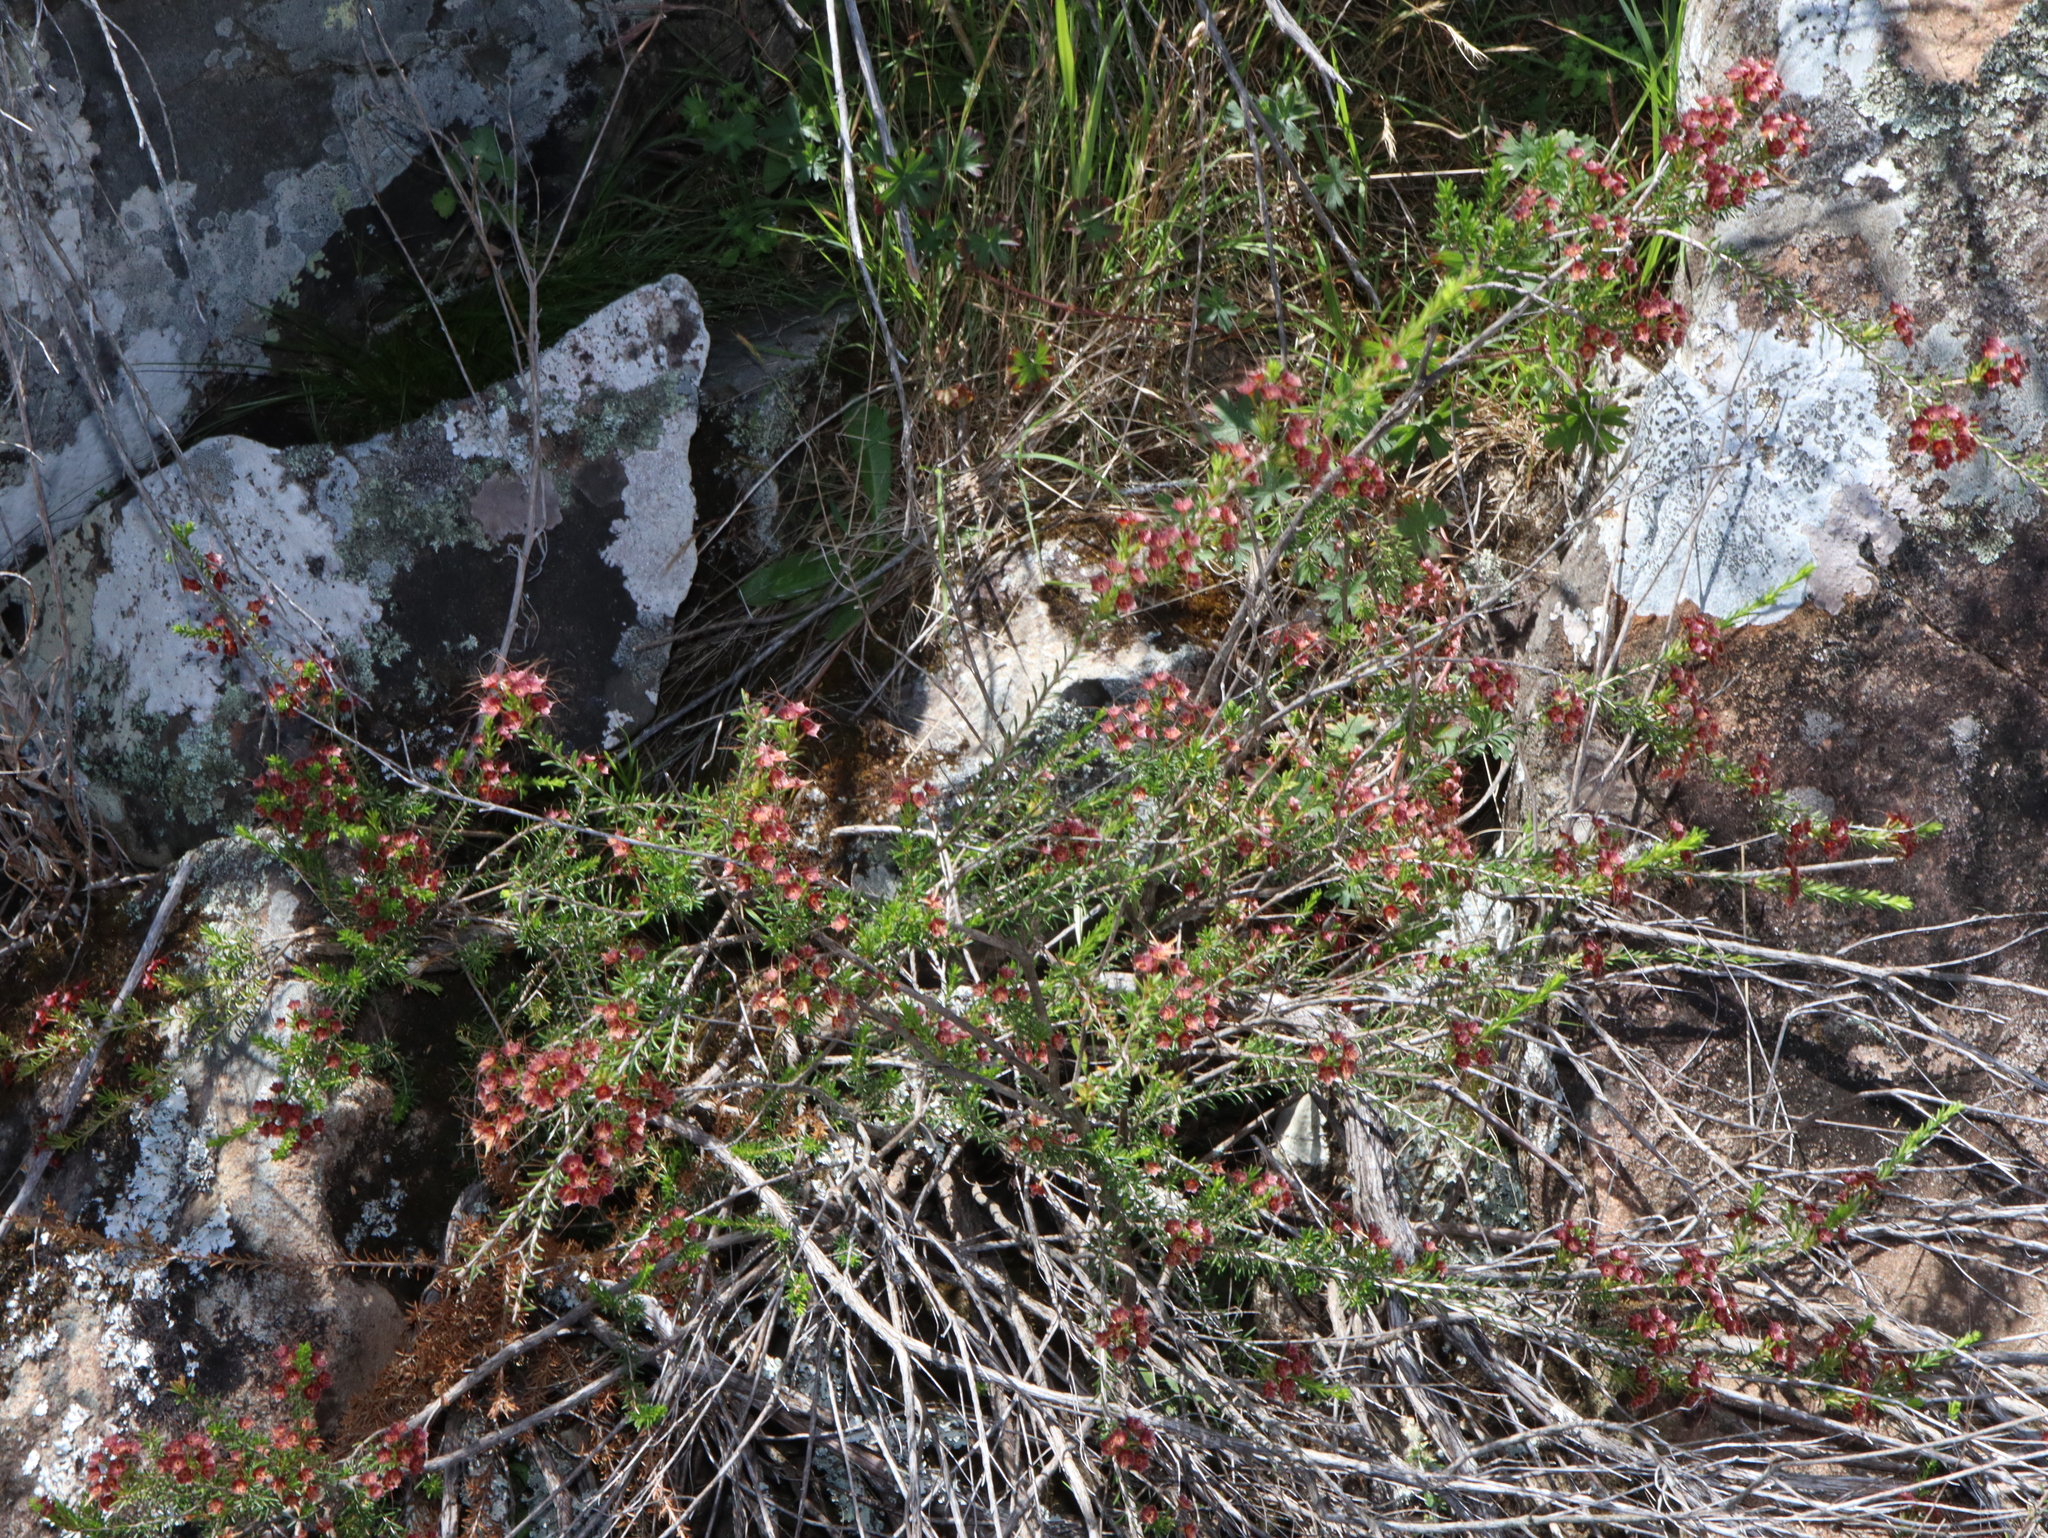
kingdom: Plantae
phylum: Tracheophyta
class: Magnoliopsida
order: Myrtales
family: Myrtaceae
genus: Calytrix
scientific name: Calytrix tetragona
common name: Common fringe myrtle
